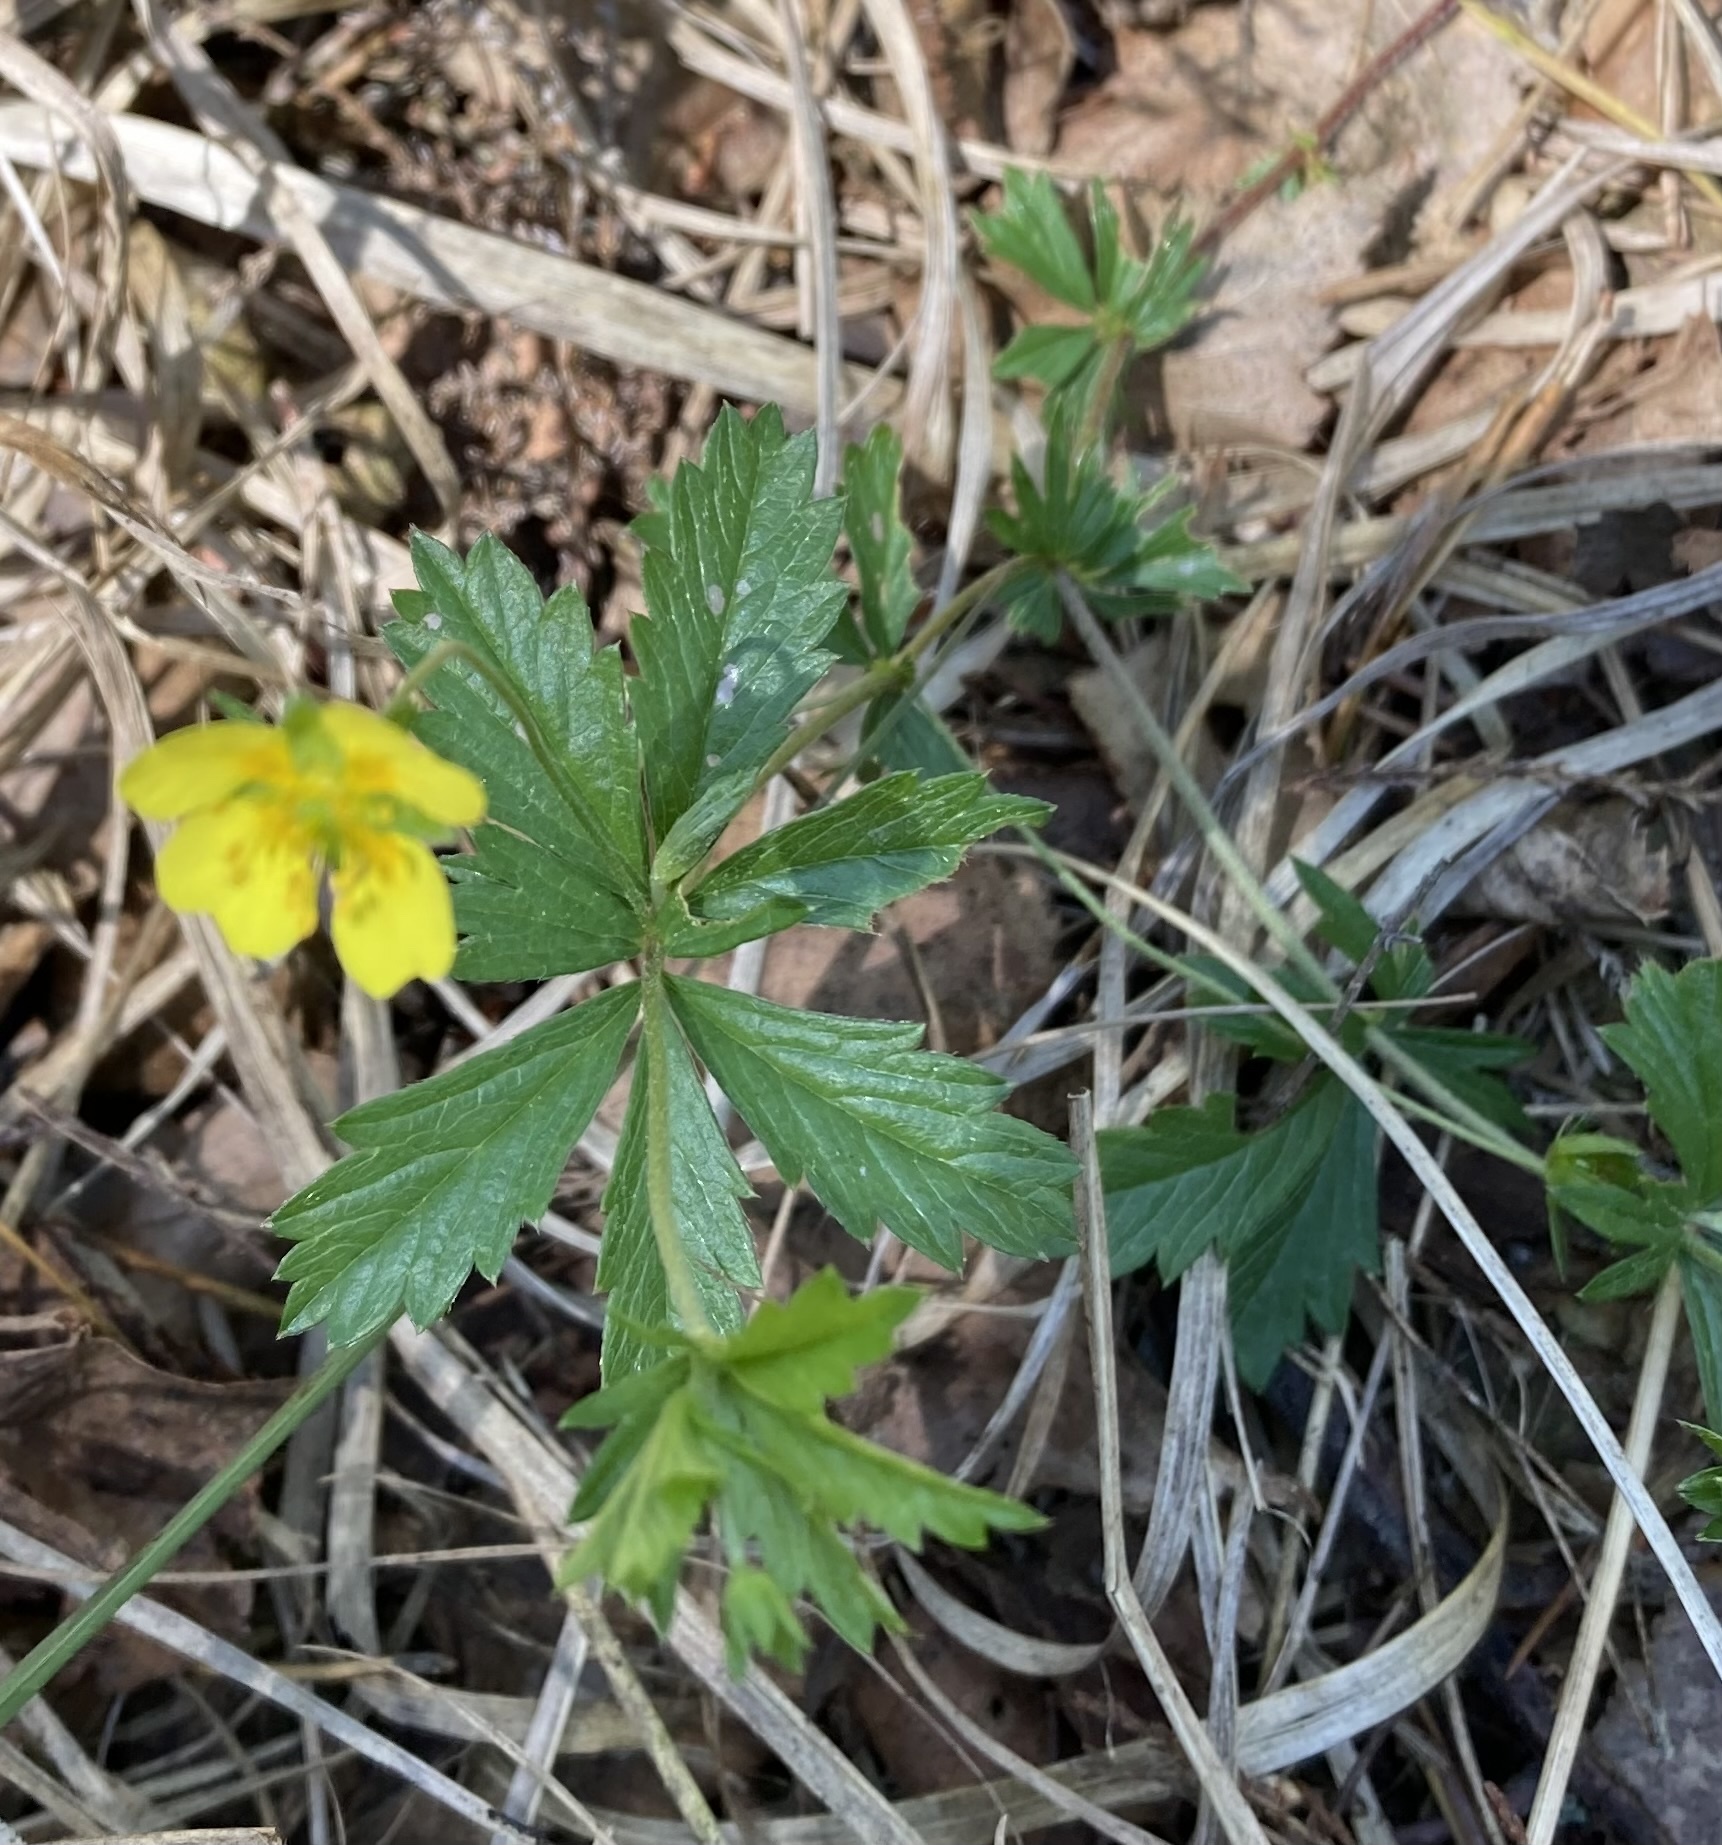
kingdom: Plantae
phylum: Tracheophyta
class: Magnoliopsida
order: Rosales
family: Rosaceae
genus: Potentilla
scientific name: Potentilla erecta
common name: Tormentil
